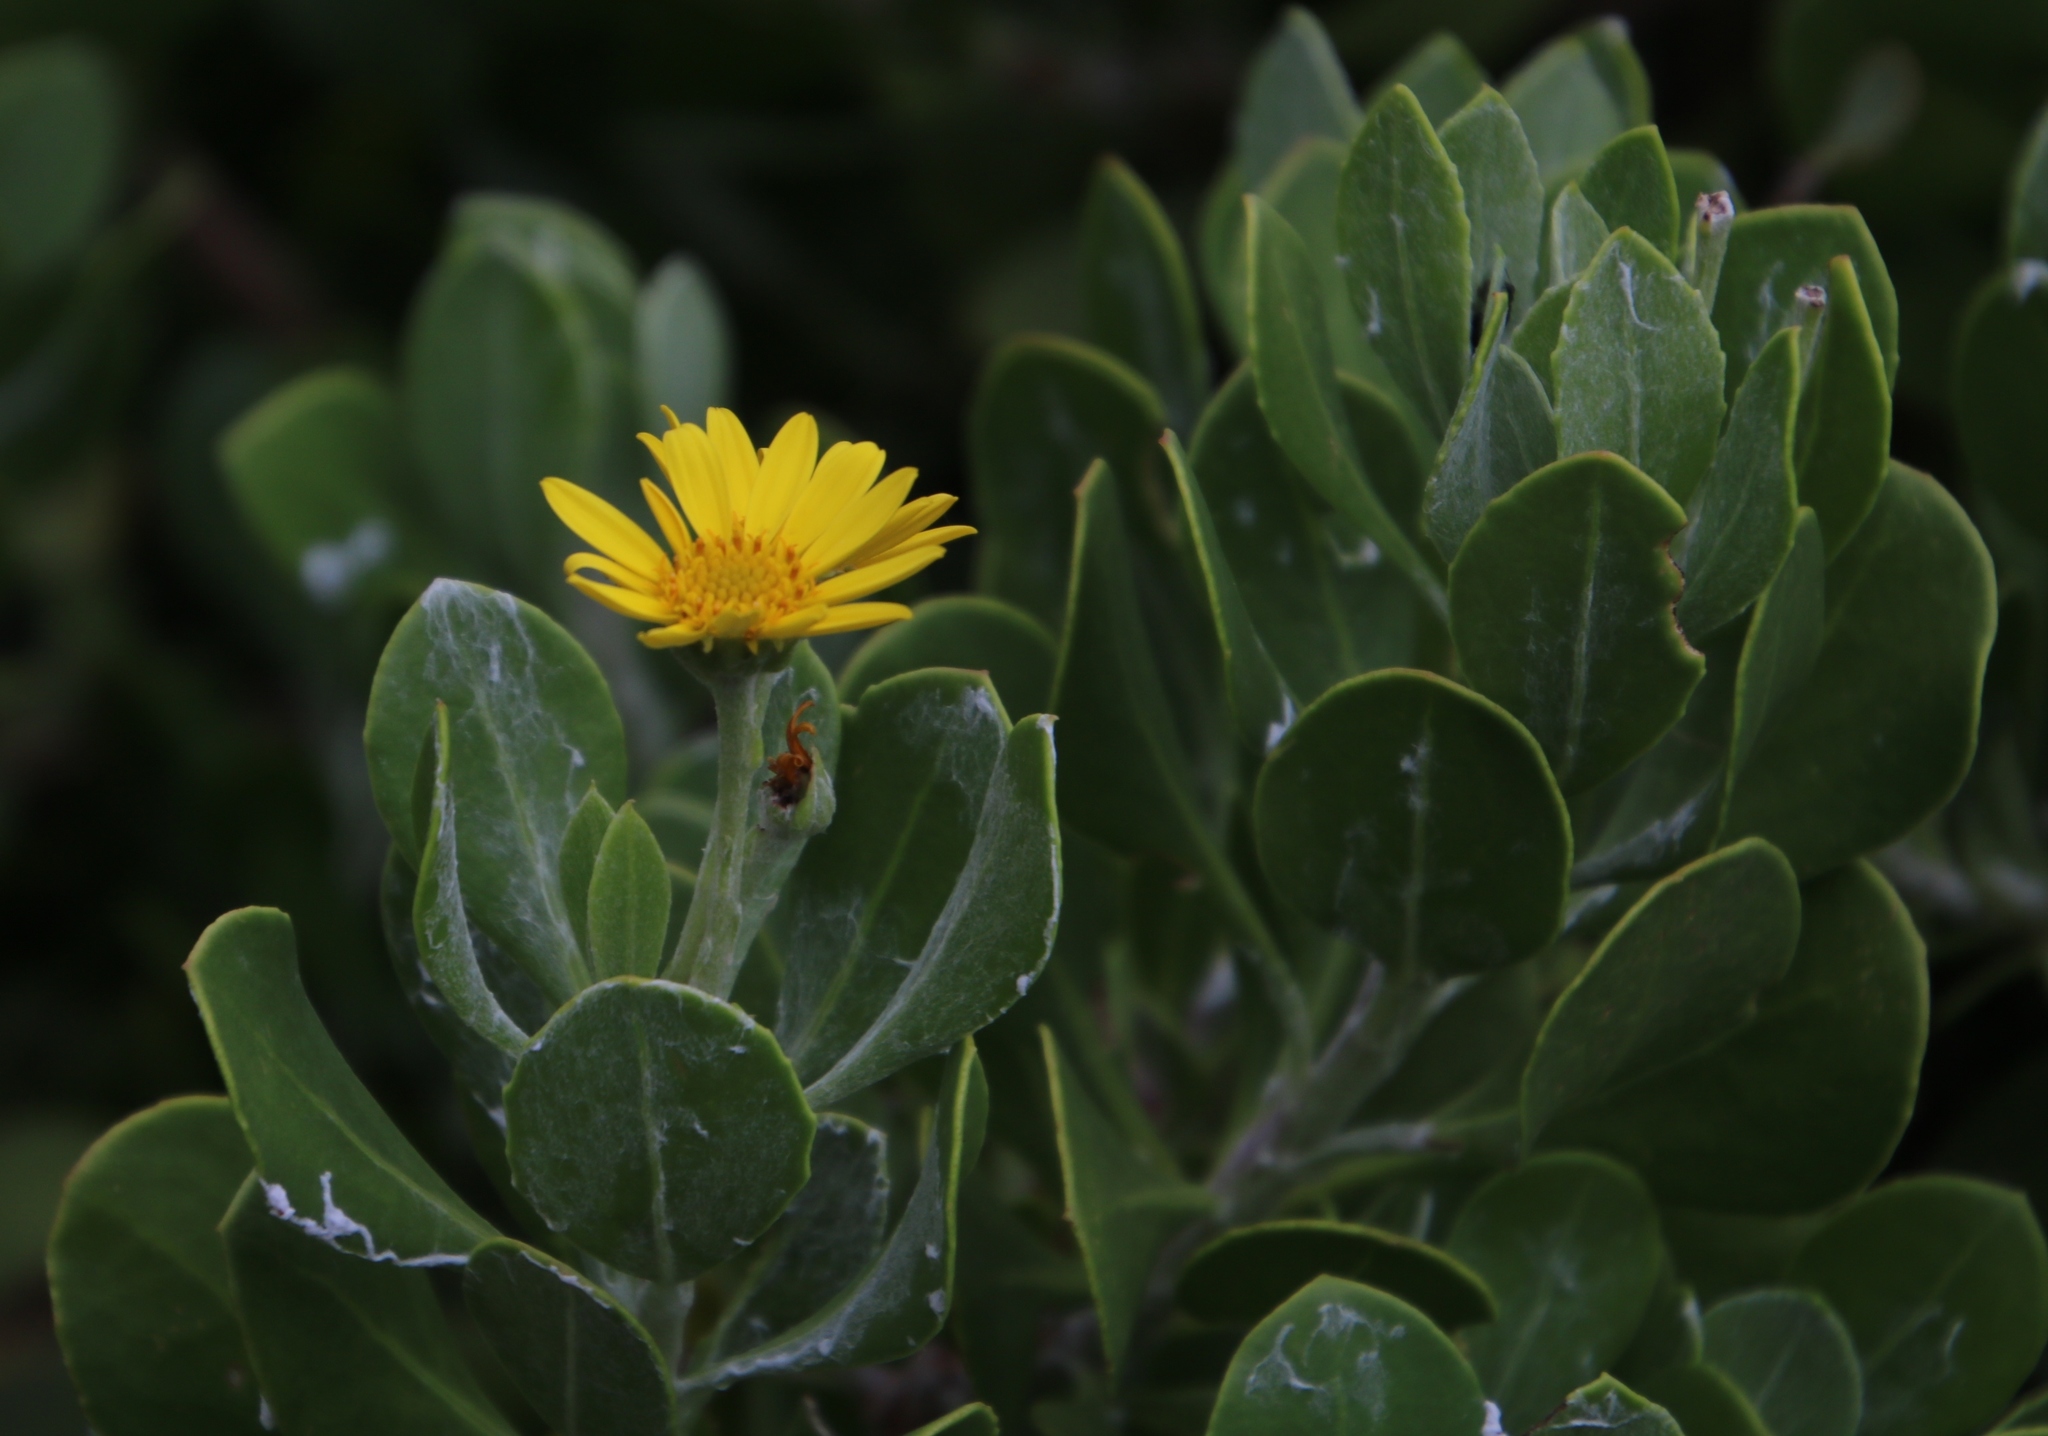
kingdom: Plantae
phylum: Tracheophyta
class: Magnoliopsida
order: Asterales
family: Asteraceae
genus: Osteospermum
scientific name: Osteospermum moniliferum
